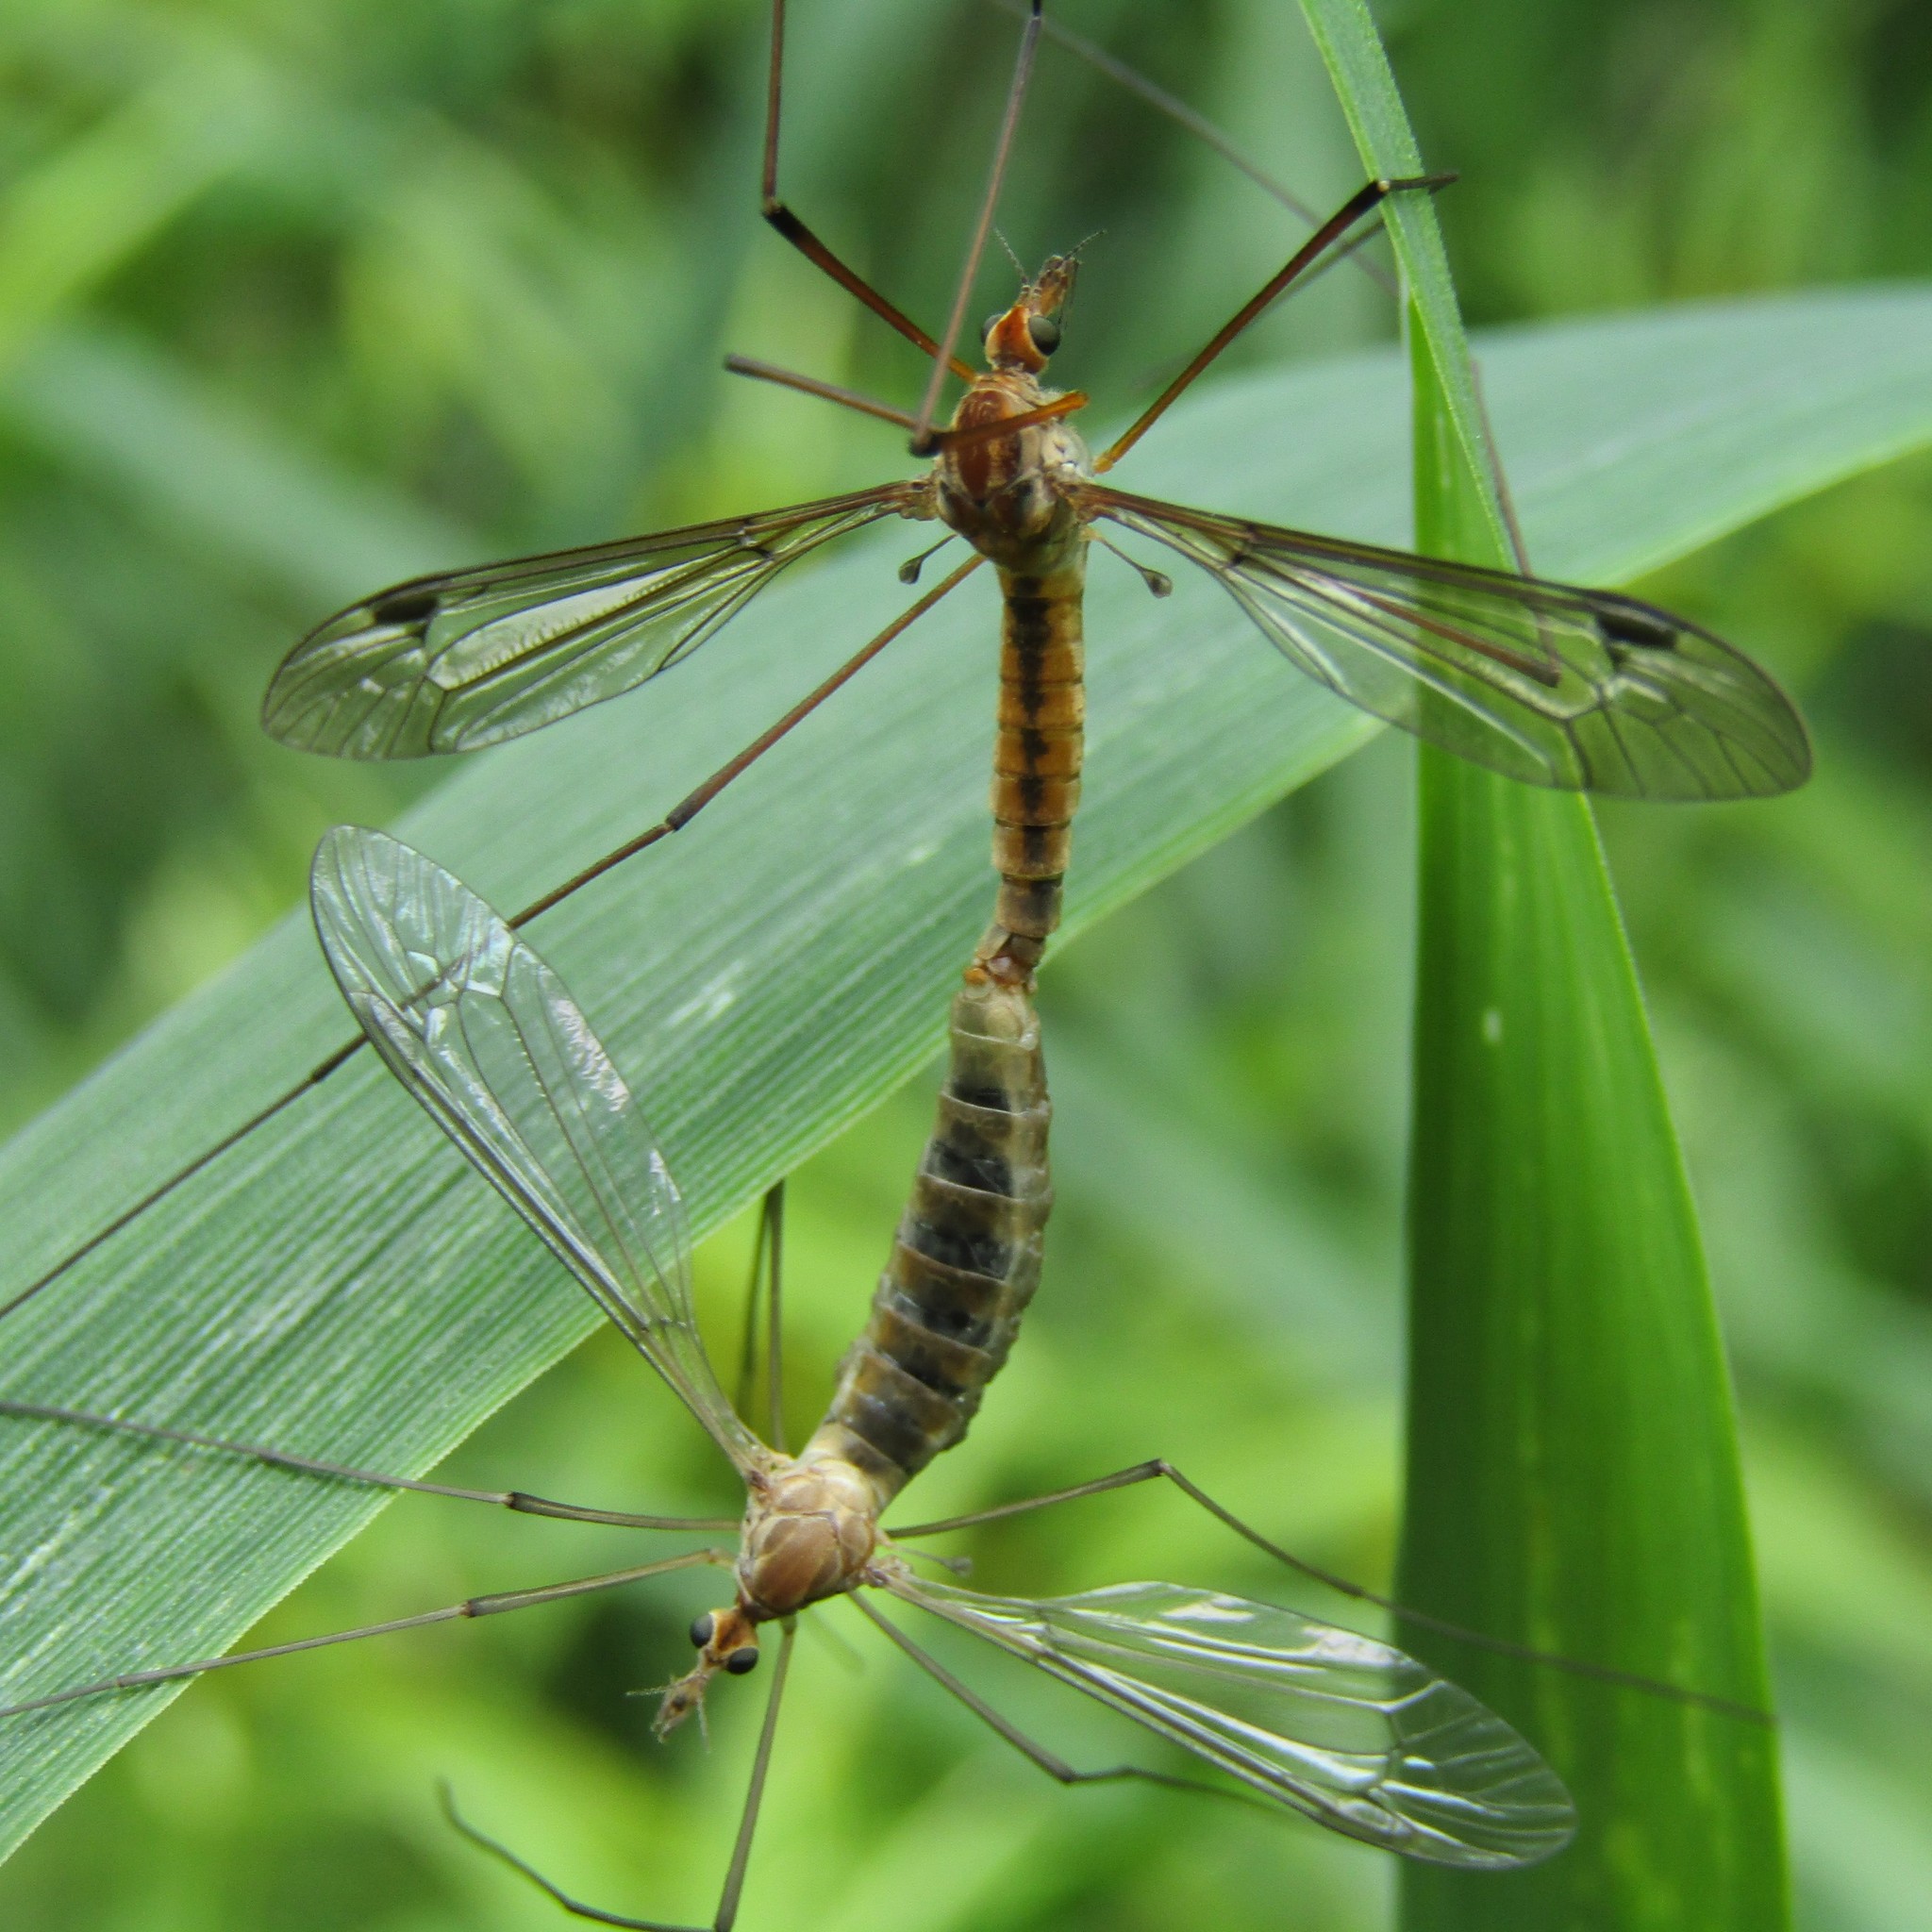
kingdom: Animalia
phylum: Arthropoda
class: Insecta
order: Diptera
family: Tipulidae
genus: Leptotarsus
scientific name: Leptotarsus dichroithorax
